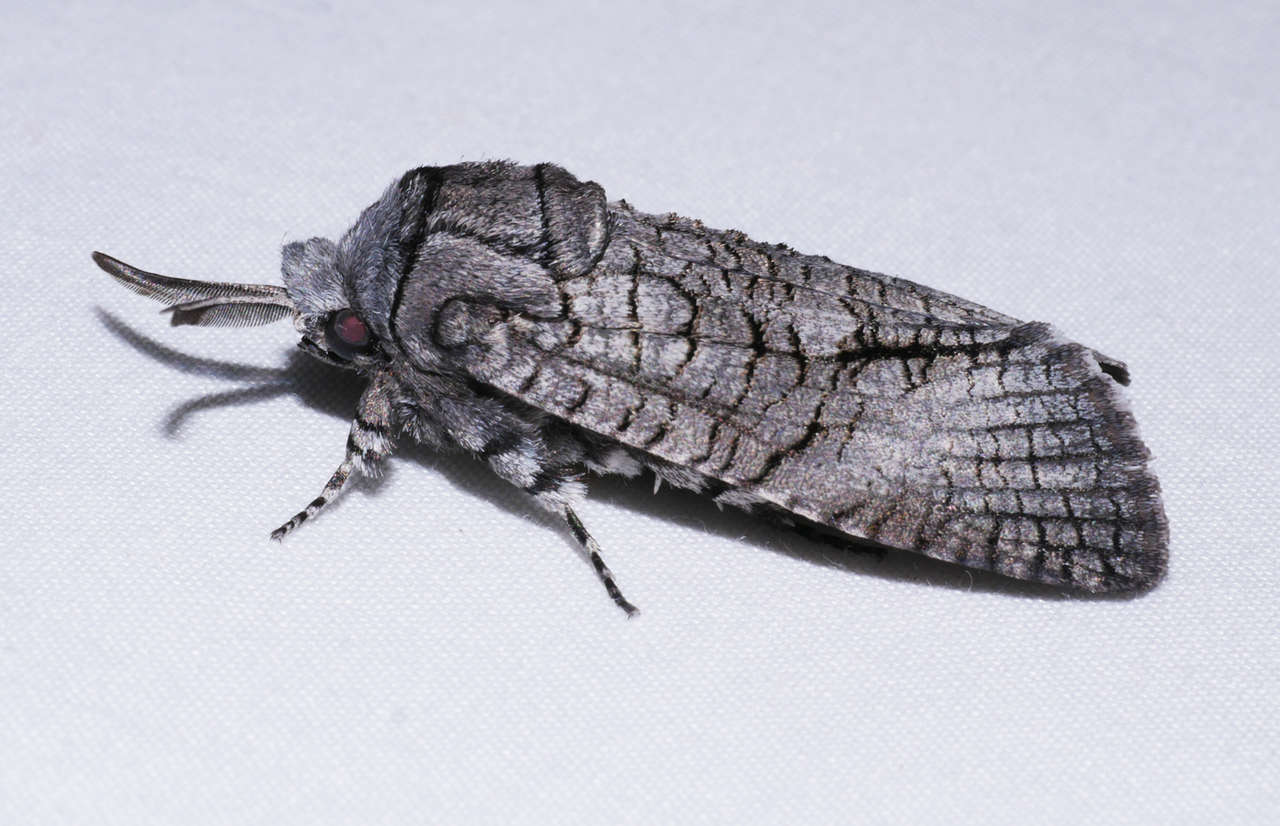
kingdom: Animalia
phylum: Arthropoda
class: Insecta
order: Lepidoptera
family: Cossidae
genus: Culama
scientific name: Culama australis
